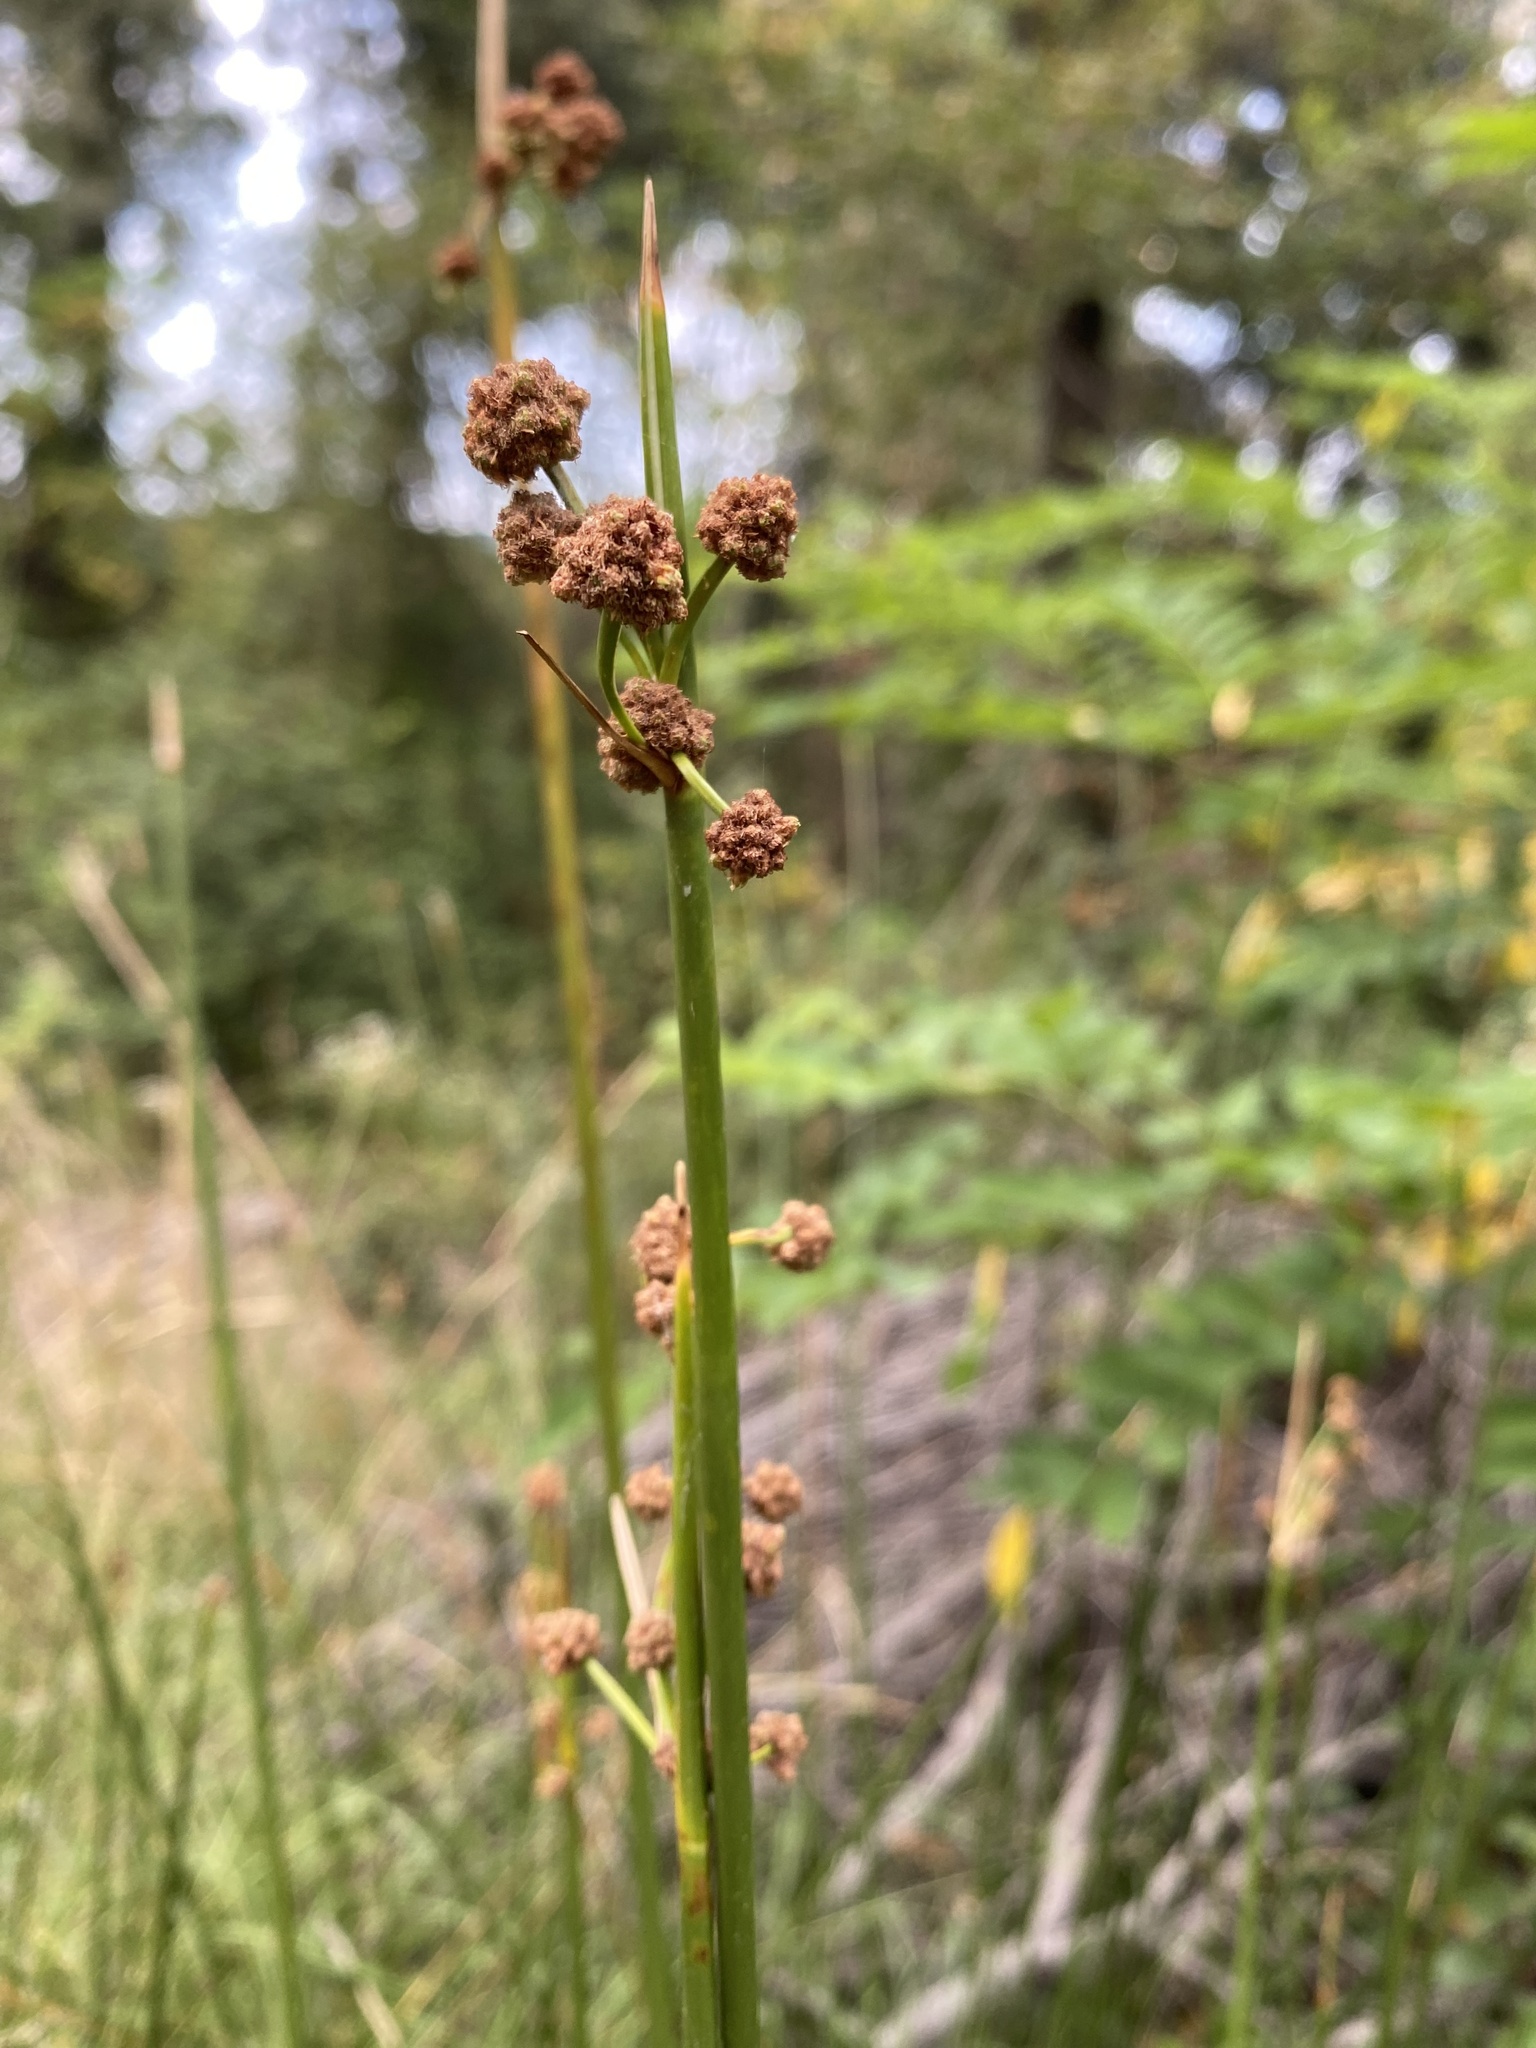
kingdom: Plantae
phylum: Tracheophyta
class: Liliopsida
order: Poales
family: Cyperaceae
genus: Scirpoides
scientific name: Scirpoides holoschoenus
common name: Round-headed club-rush
